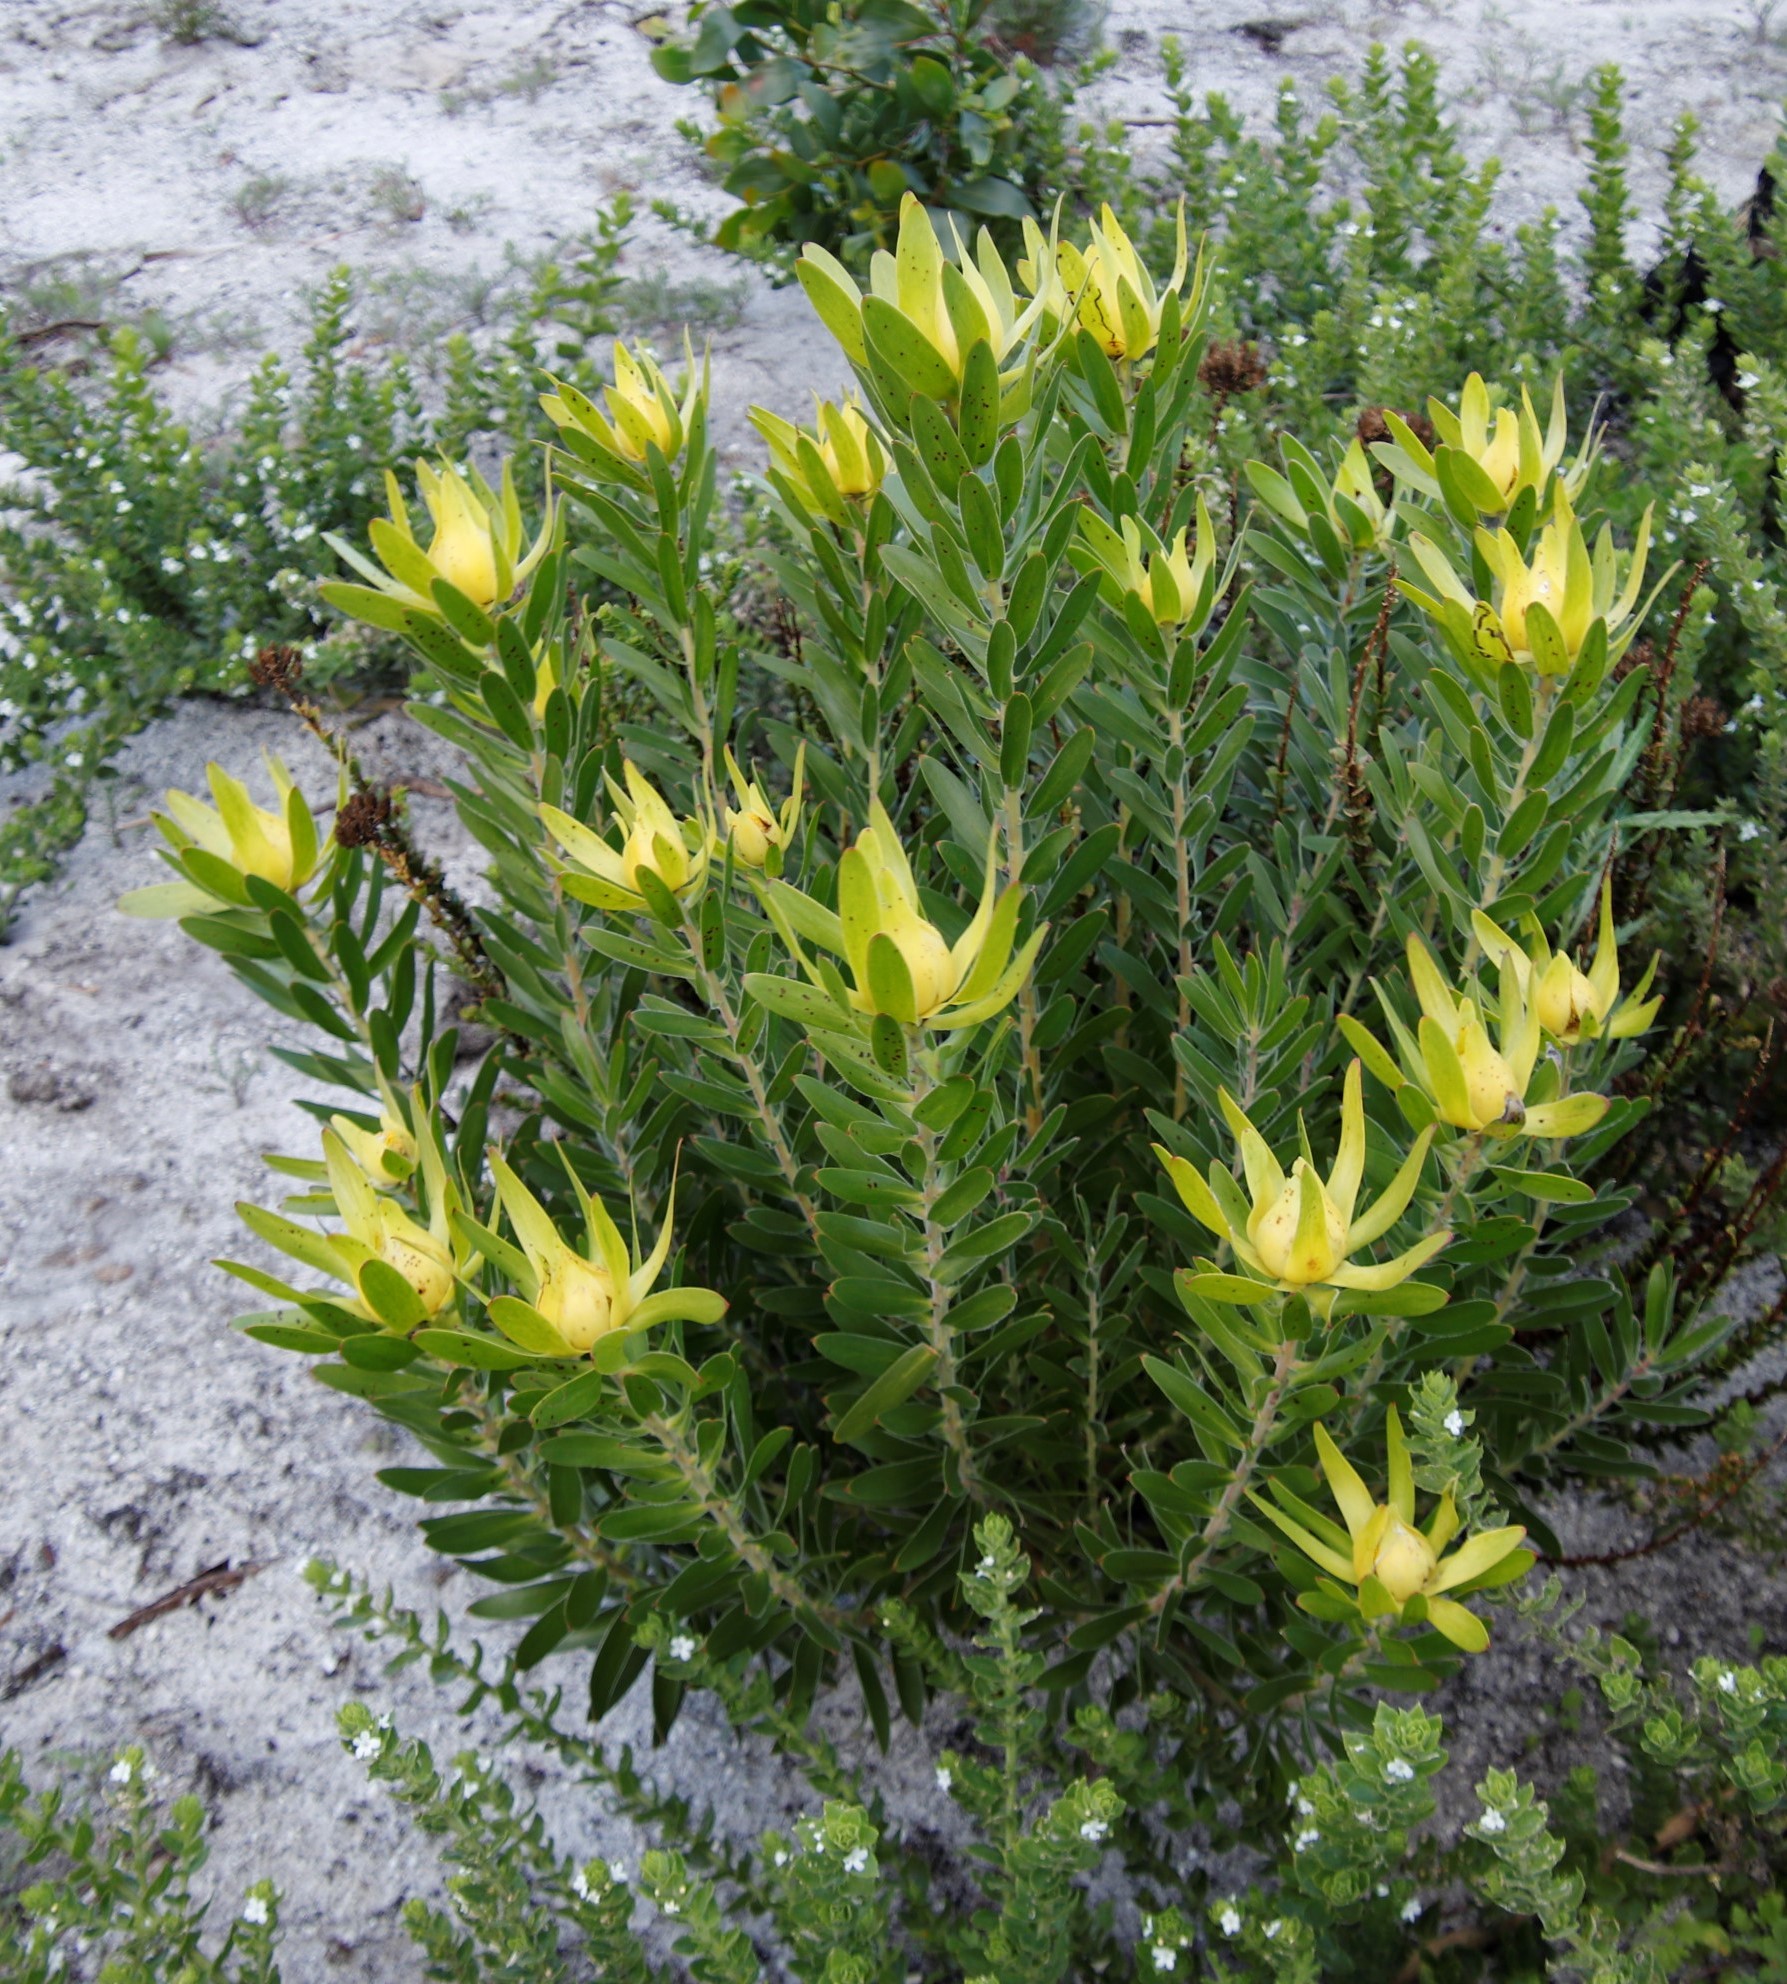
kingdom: Plantae
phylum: Tracheophyta
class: Magnoliopsida
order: Proteales
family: Proteaceae
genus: Leucadendron
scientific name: Leucadendron laureolum
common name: Golden sunshinebush
